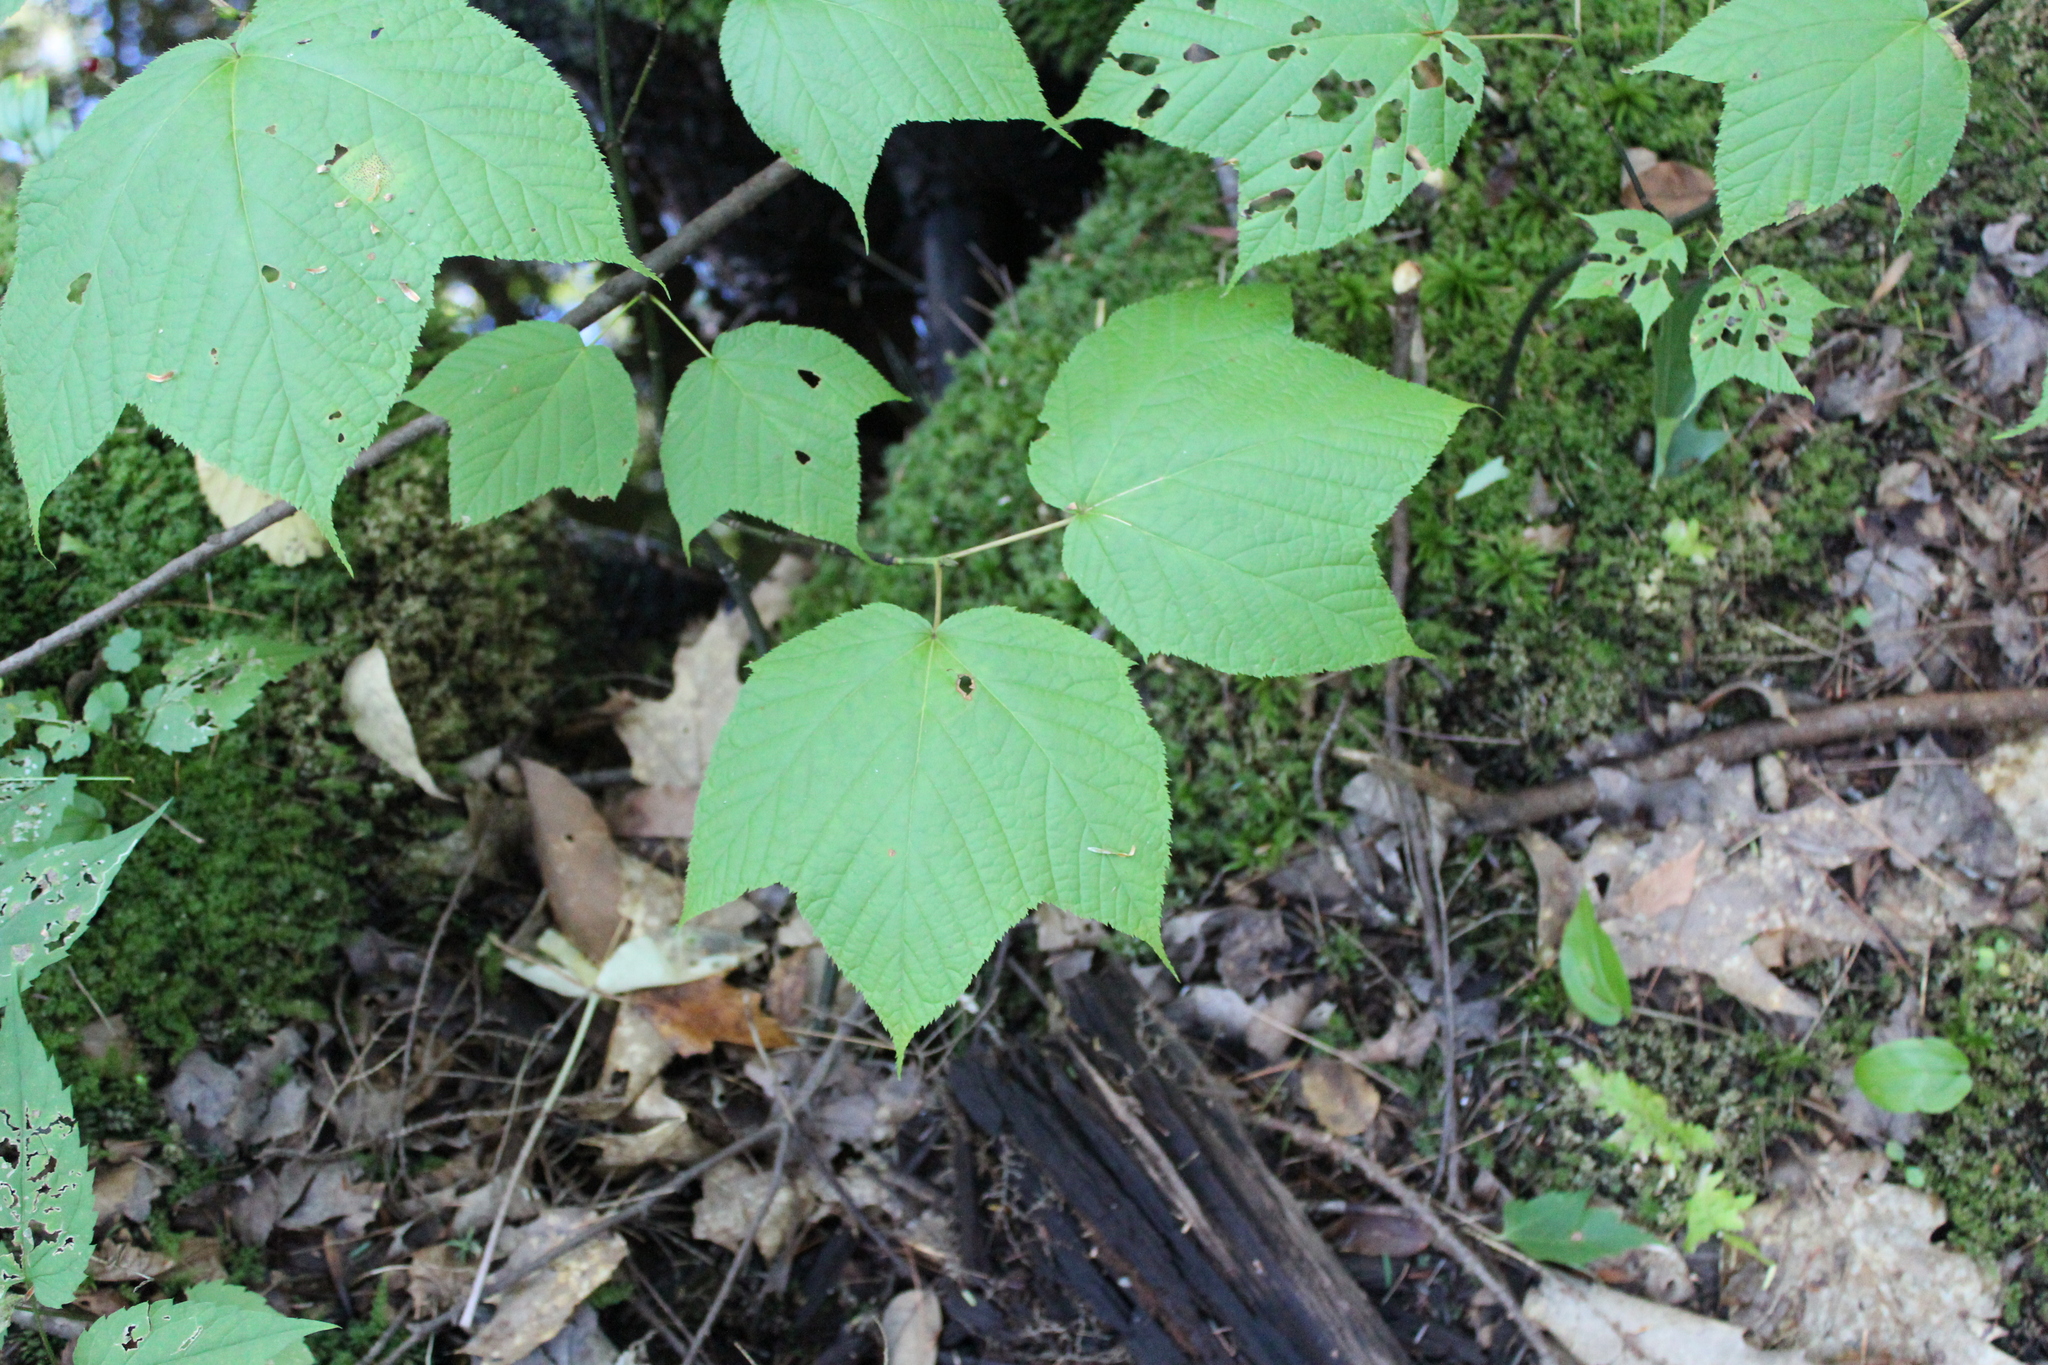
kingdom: Plantae
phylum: Tracheophyta
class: Magnoliopsida
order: Sapindales
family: Sapindaceae
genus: Acer
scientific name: Acer pensylvanicum
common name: Moosewood
